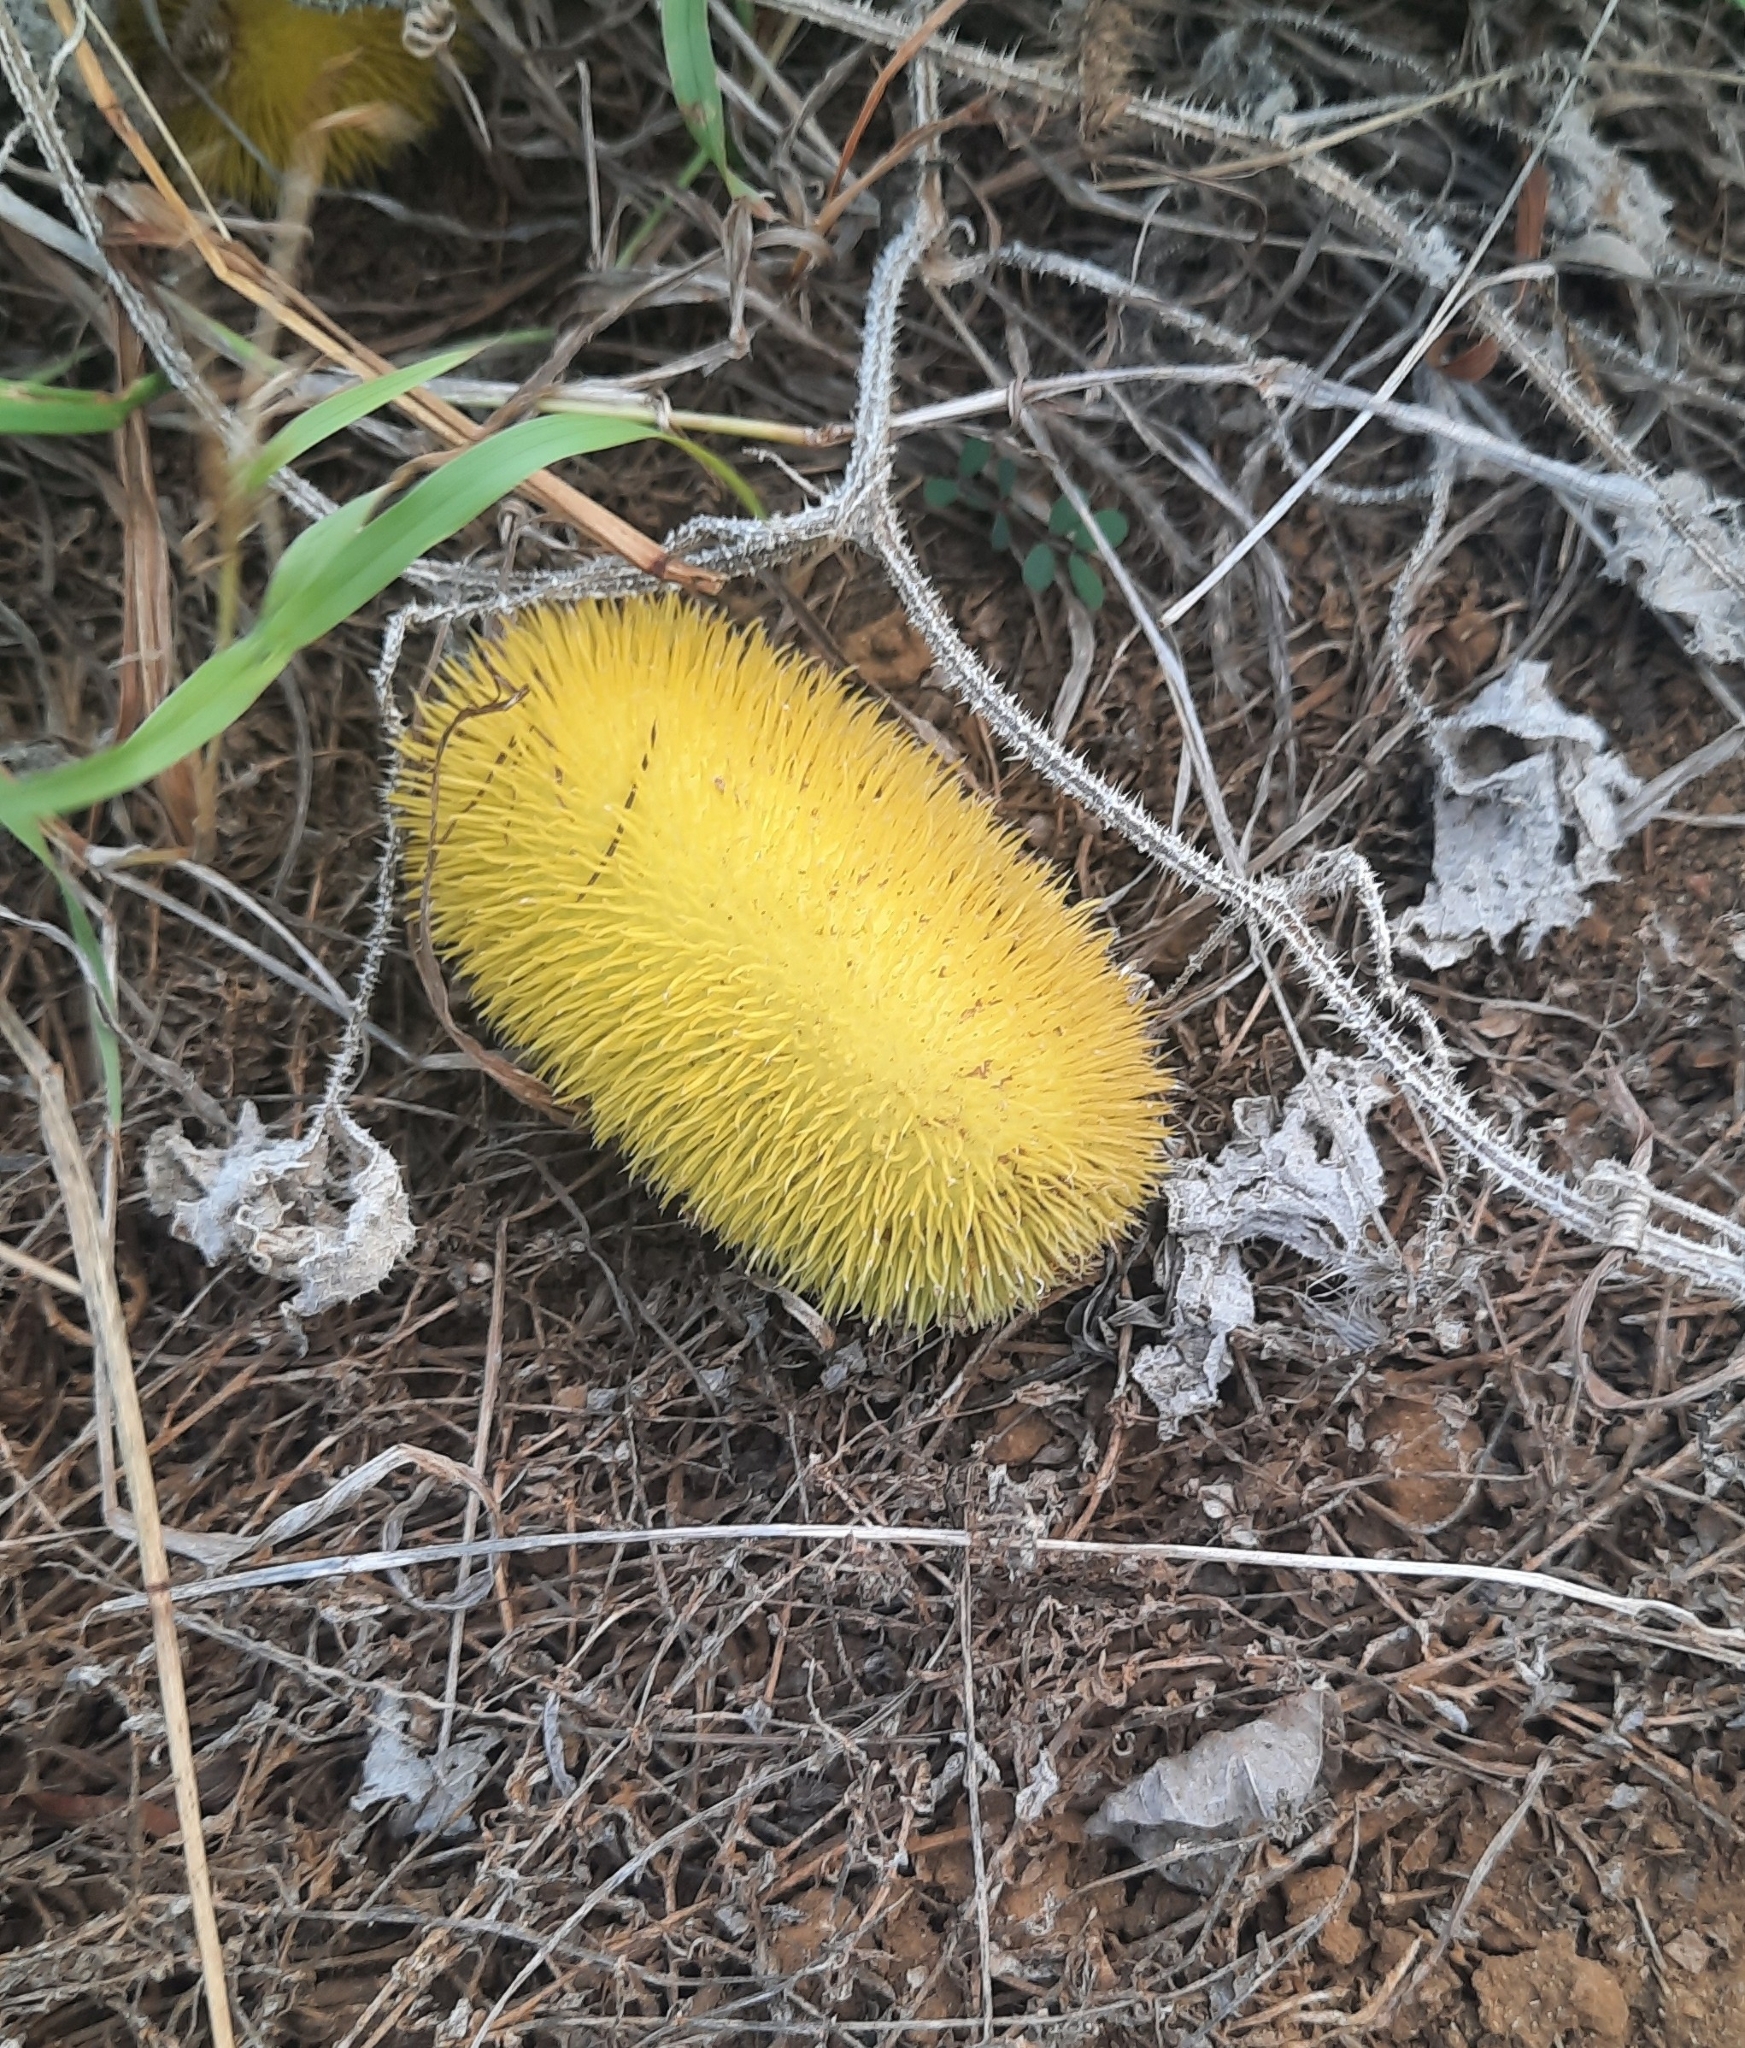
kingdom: Plantae
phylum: Tracheophyta
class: Magnoliopsida
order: Cucurbitales
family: Cucurbitaceae
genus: Cucumis
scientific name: Cucumis dipsaceus
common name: Hedgehog gourd
